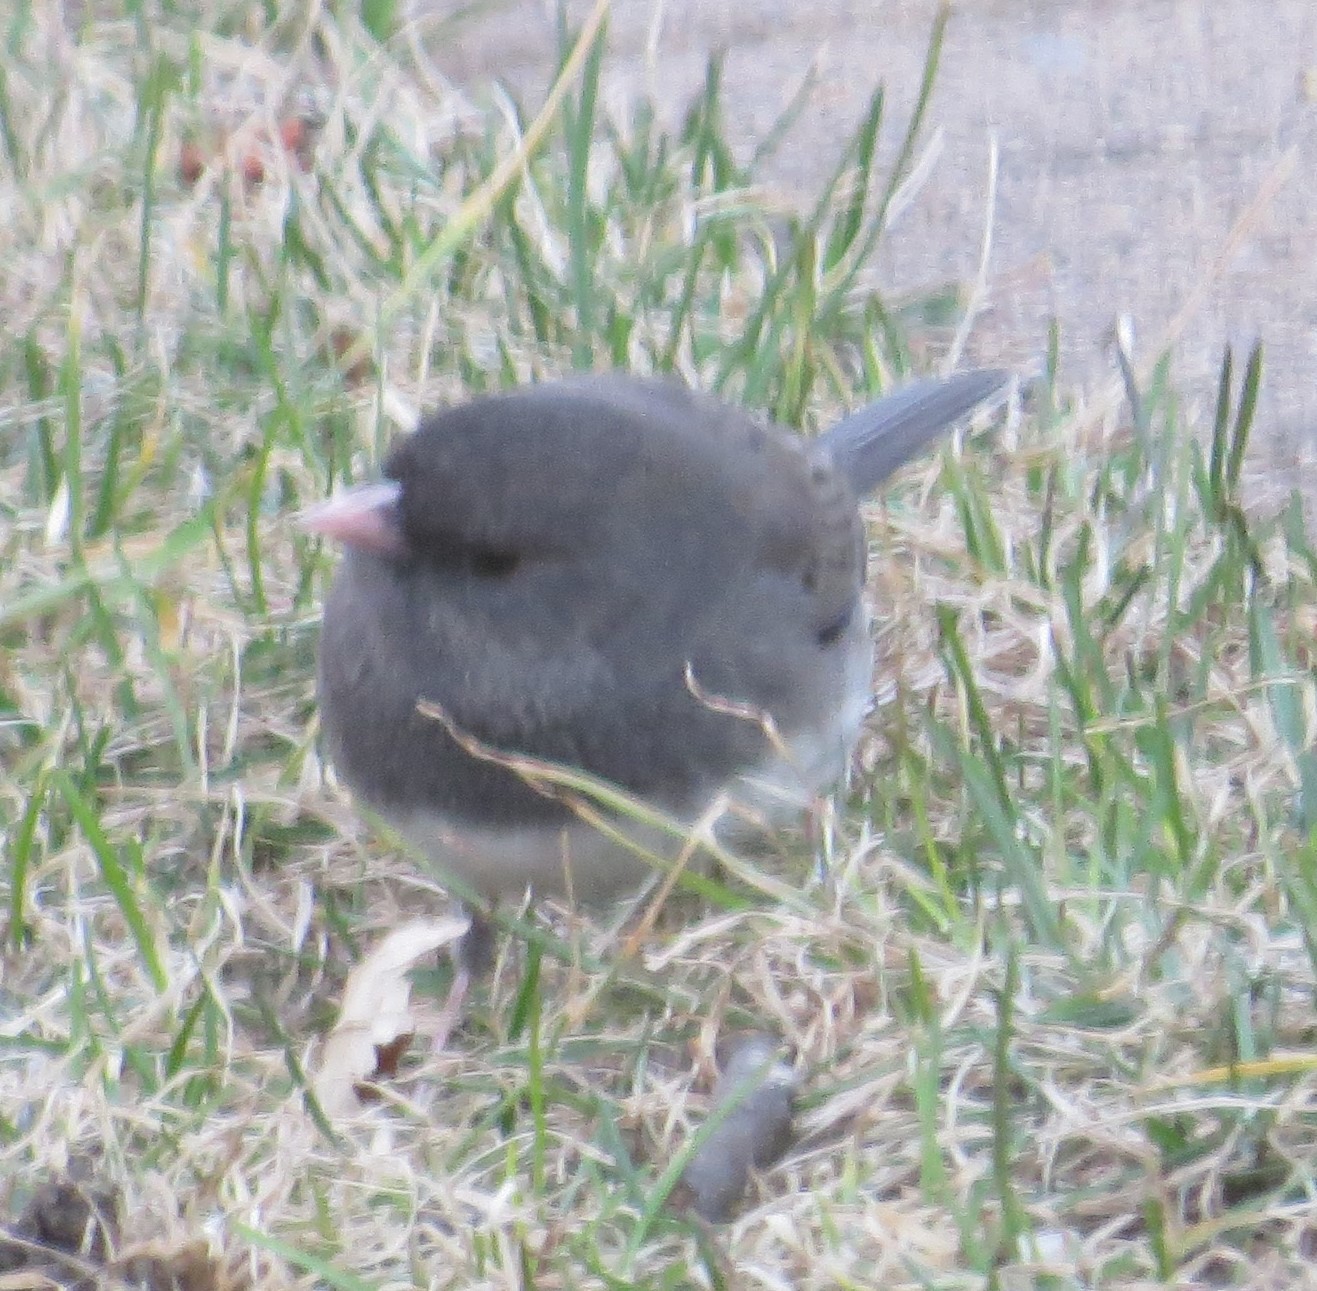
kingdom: Animalia
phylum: Chordata
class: Aves
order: Passeriformes
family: Passerellidae
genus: Junco
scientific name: Junco hyemalis
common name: Dark-eyed junco
